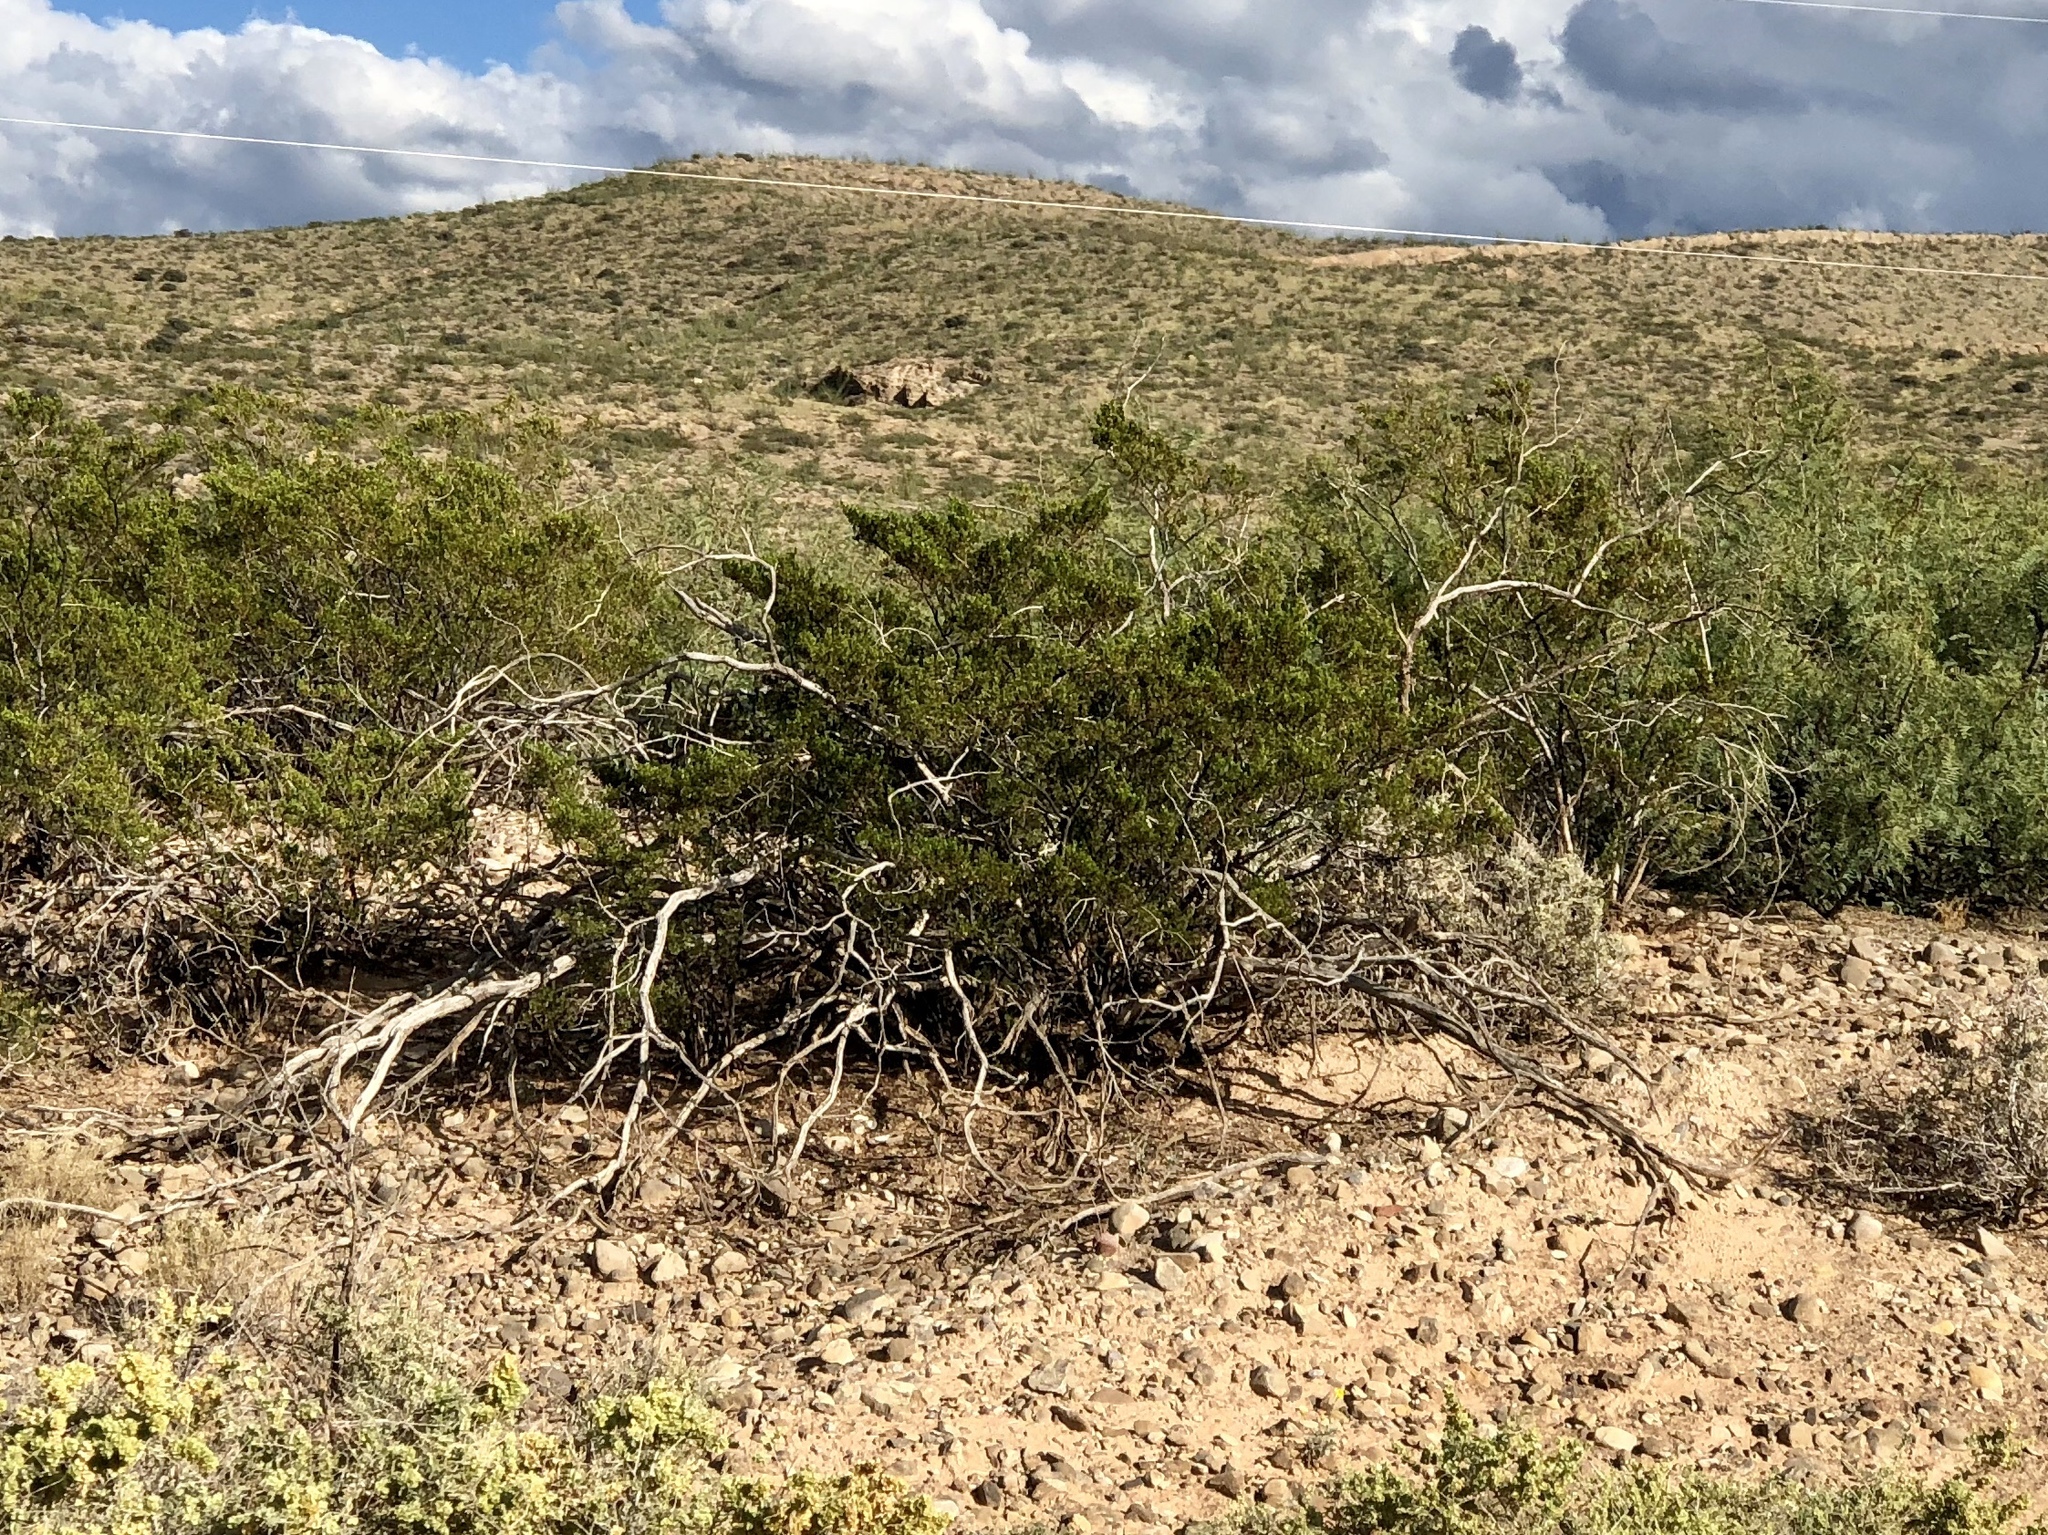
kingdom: Plantae
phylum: Tracheophyta
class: Magnoliopsida
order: Zygophyllales
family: Zygophyllaceae
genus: Larrea
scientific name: Larrea tridentata
